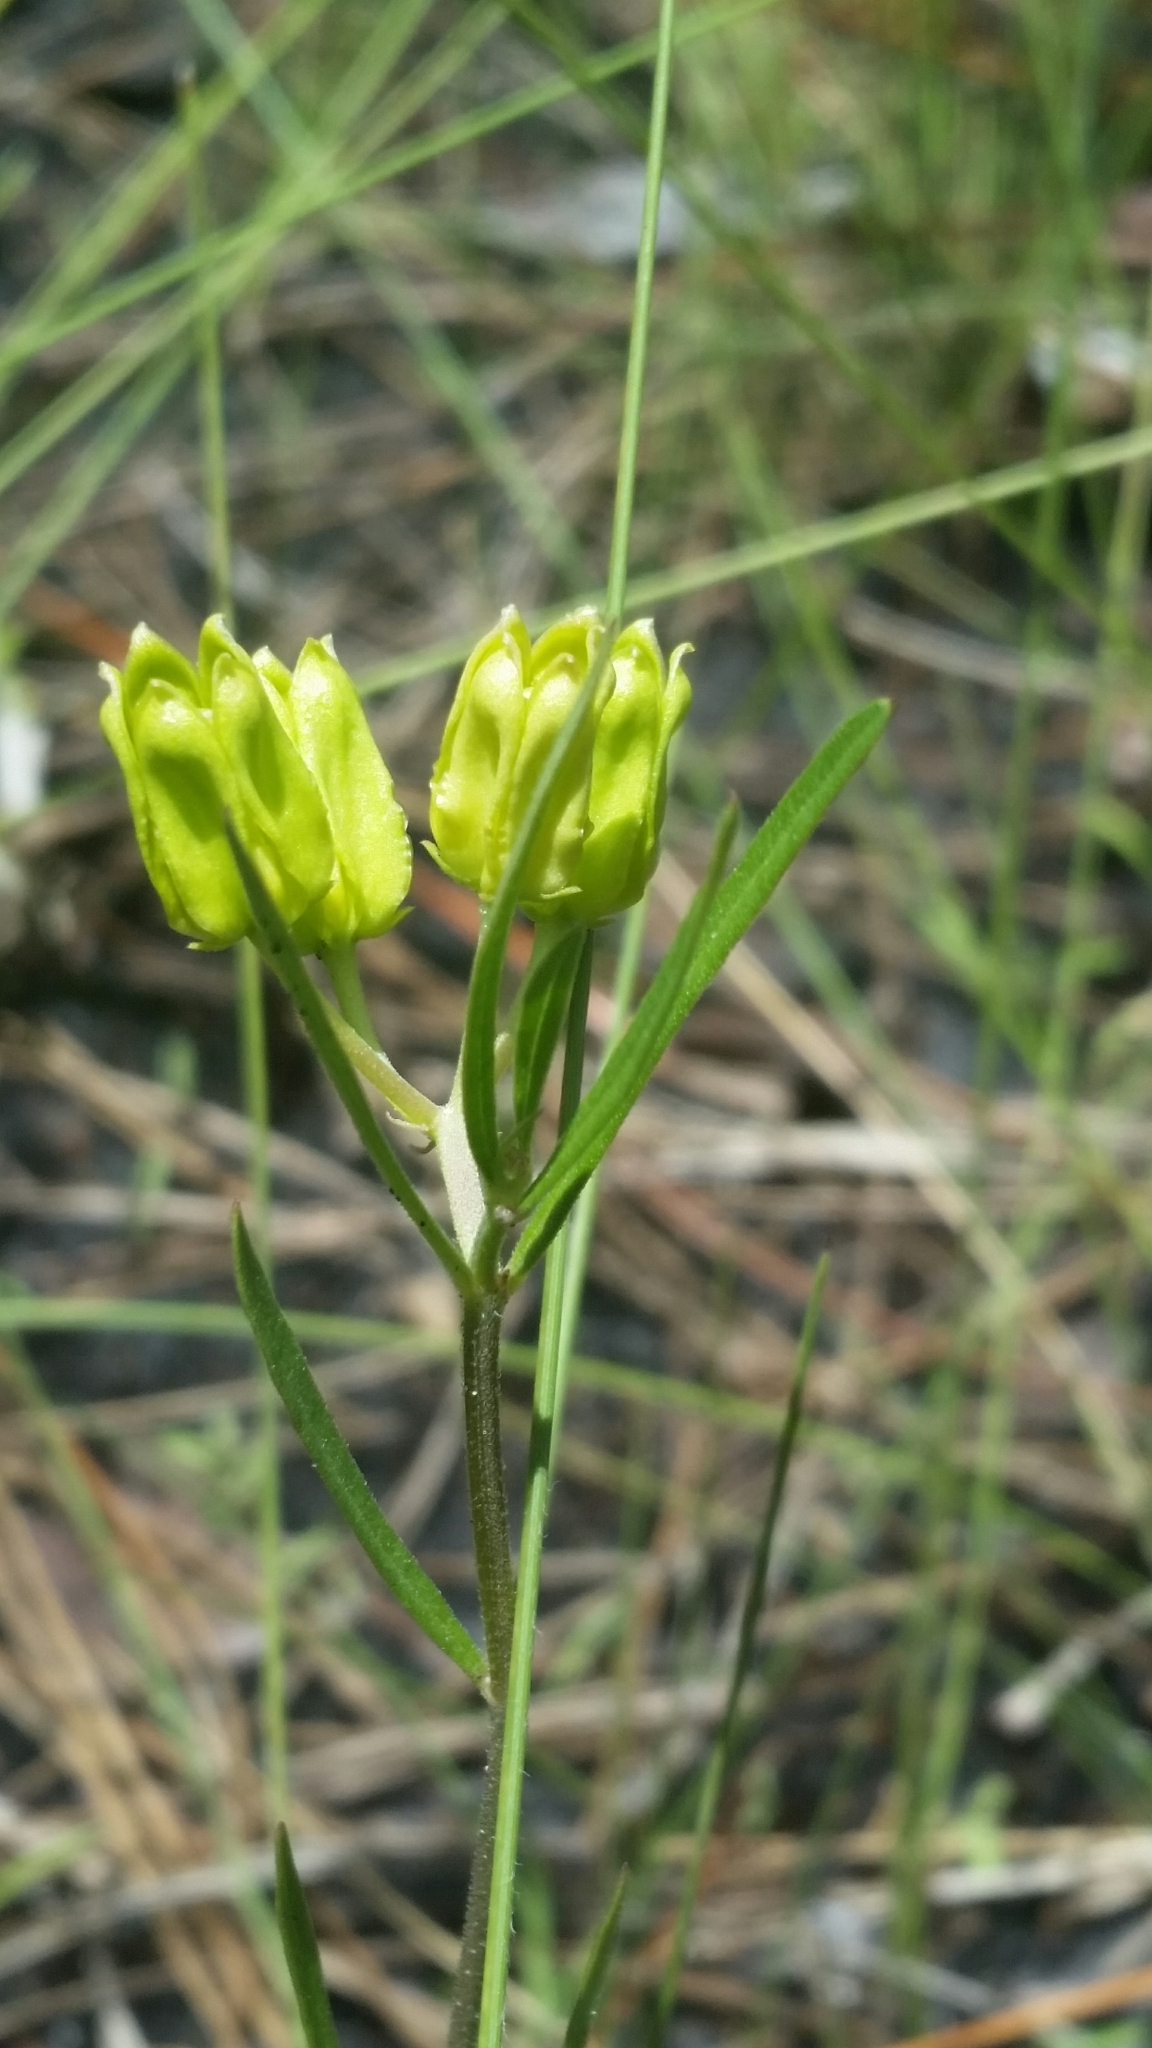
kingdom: Plantae
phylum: Tracheophyta
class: Magnoliopsida
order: Gentianales
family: Apocynaceae
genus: Asclepias
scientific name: Asclepias pedicellata
